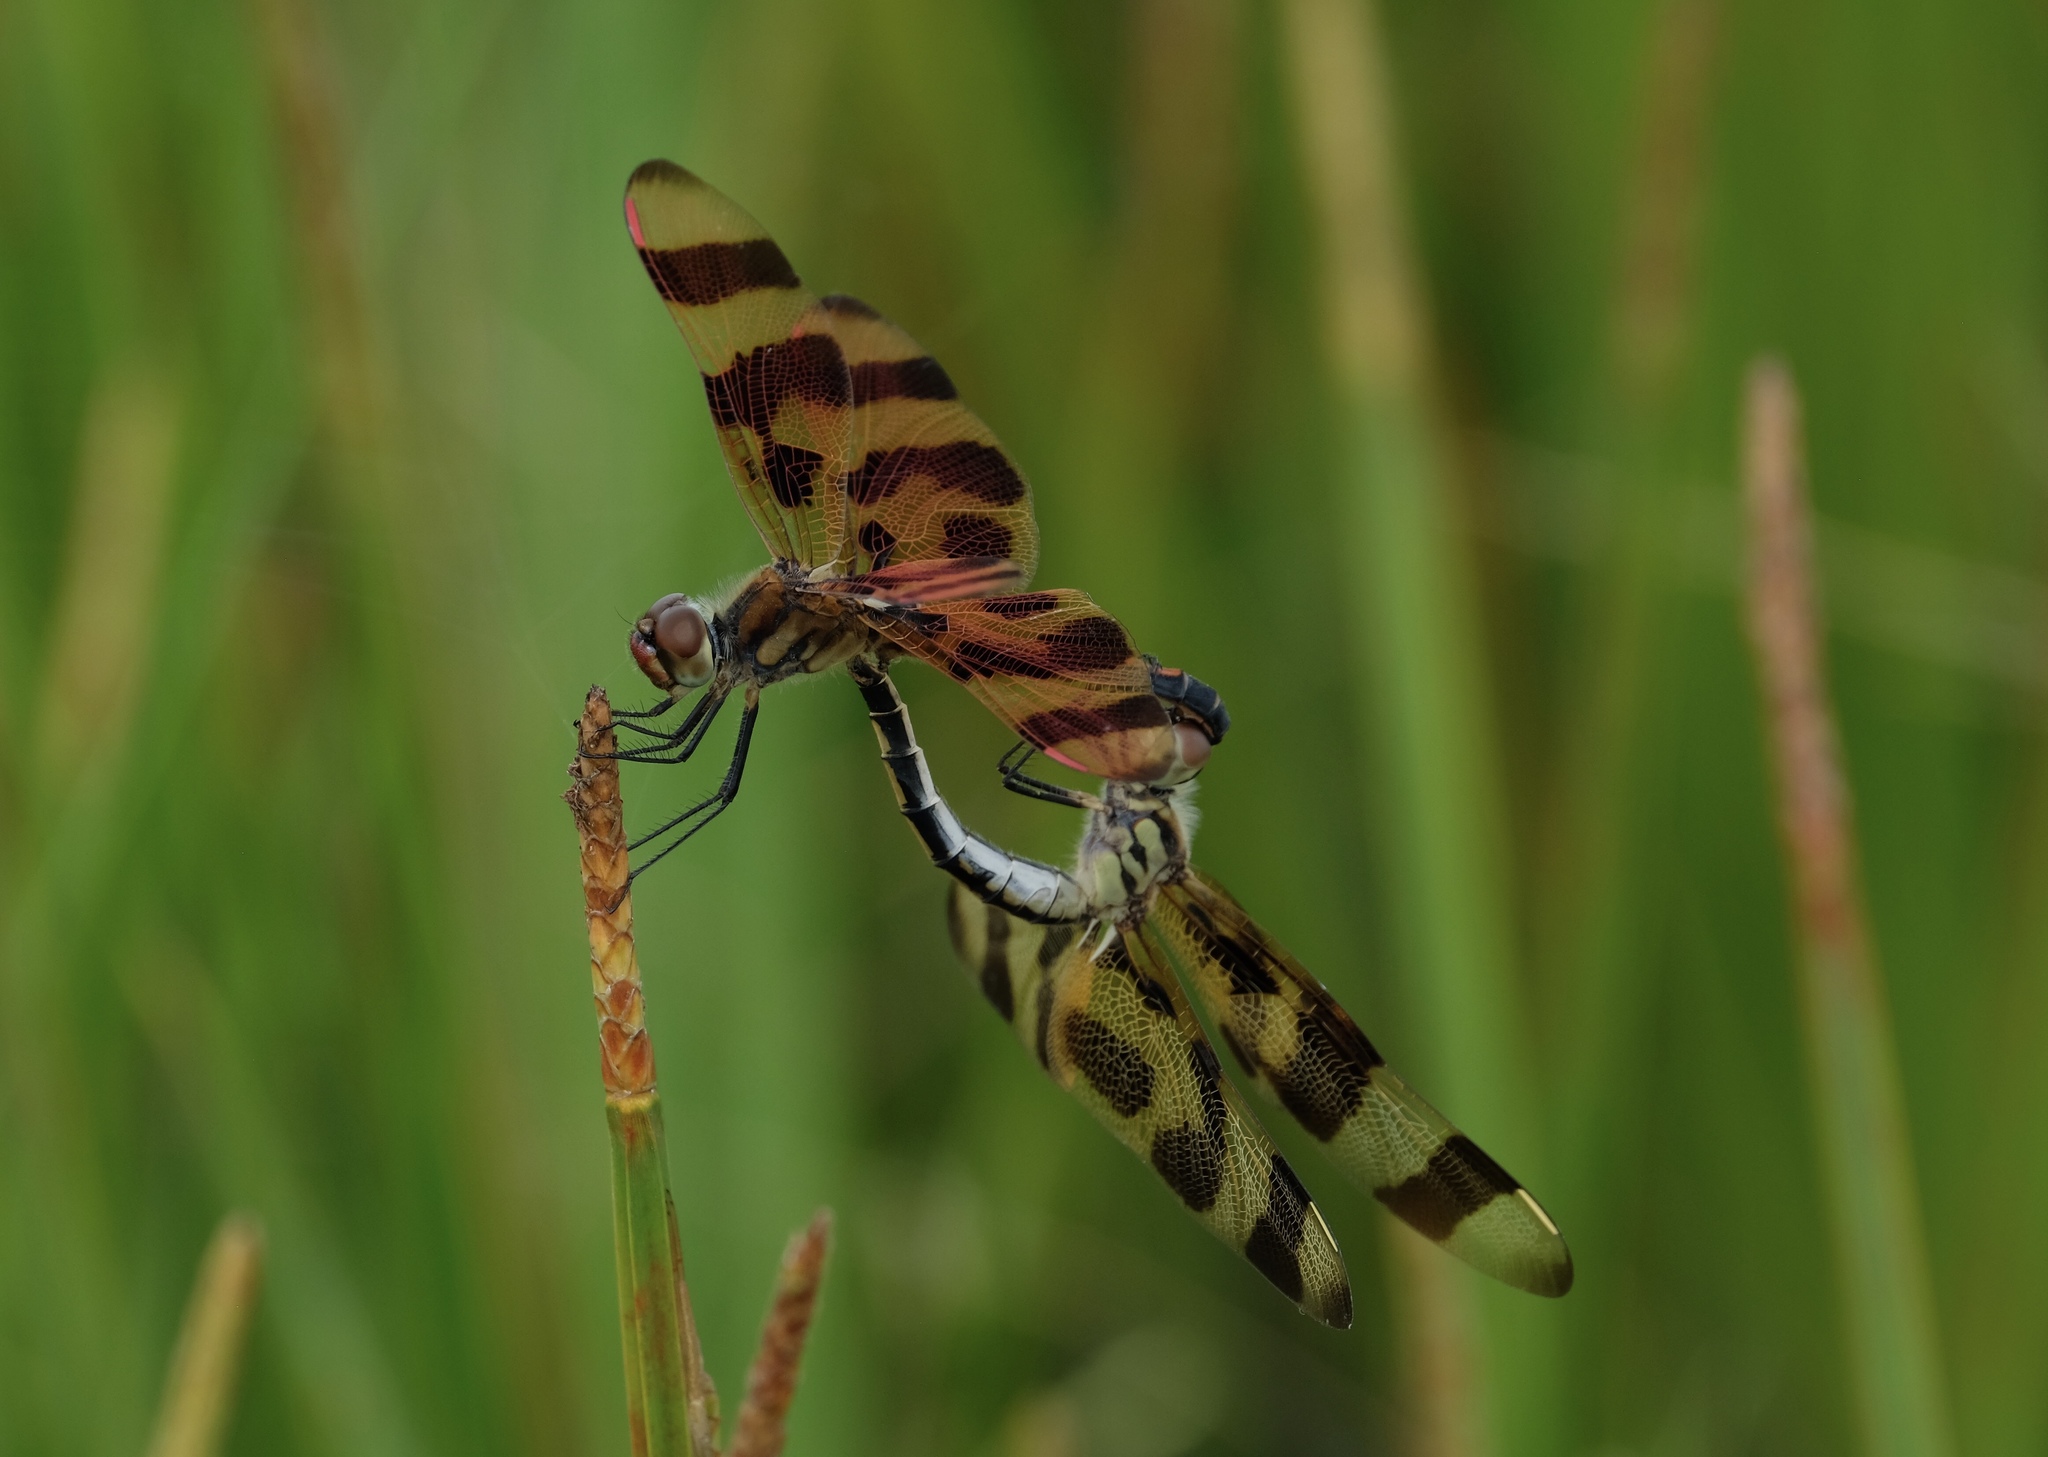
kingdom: Animalia
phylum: Arthropoda
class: Insecta
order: Odonata
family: Libellulidae
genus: Celithemis
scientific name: Celithemis eponina
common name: Halloween pennant
